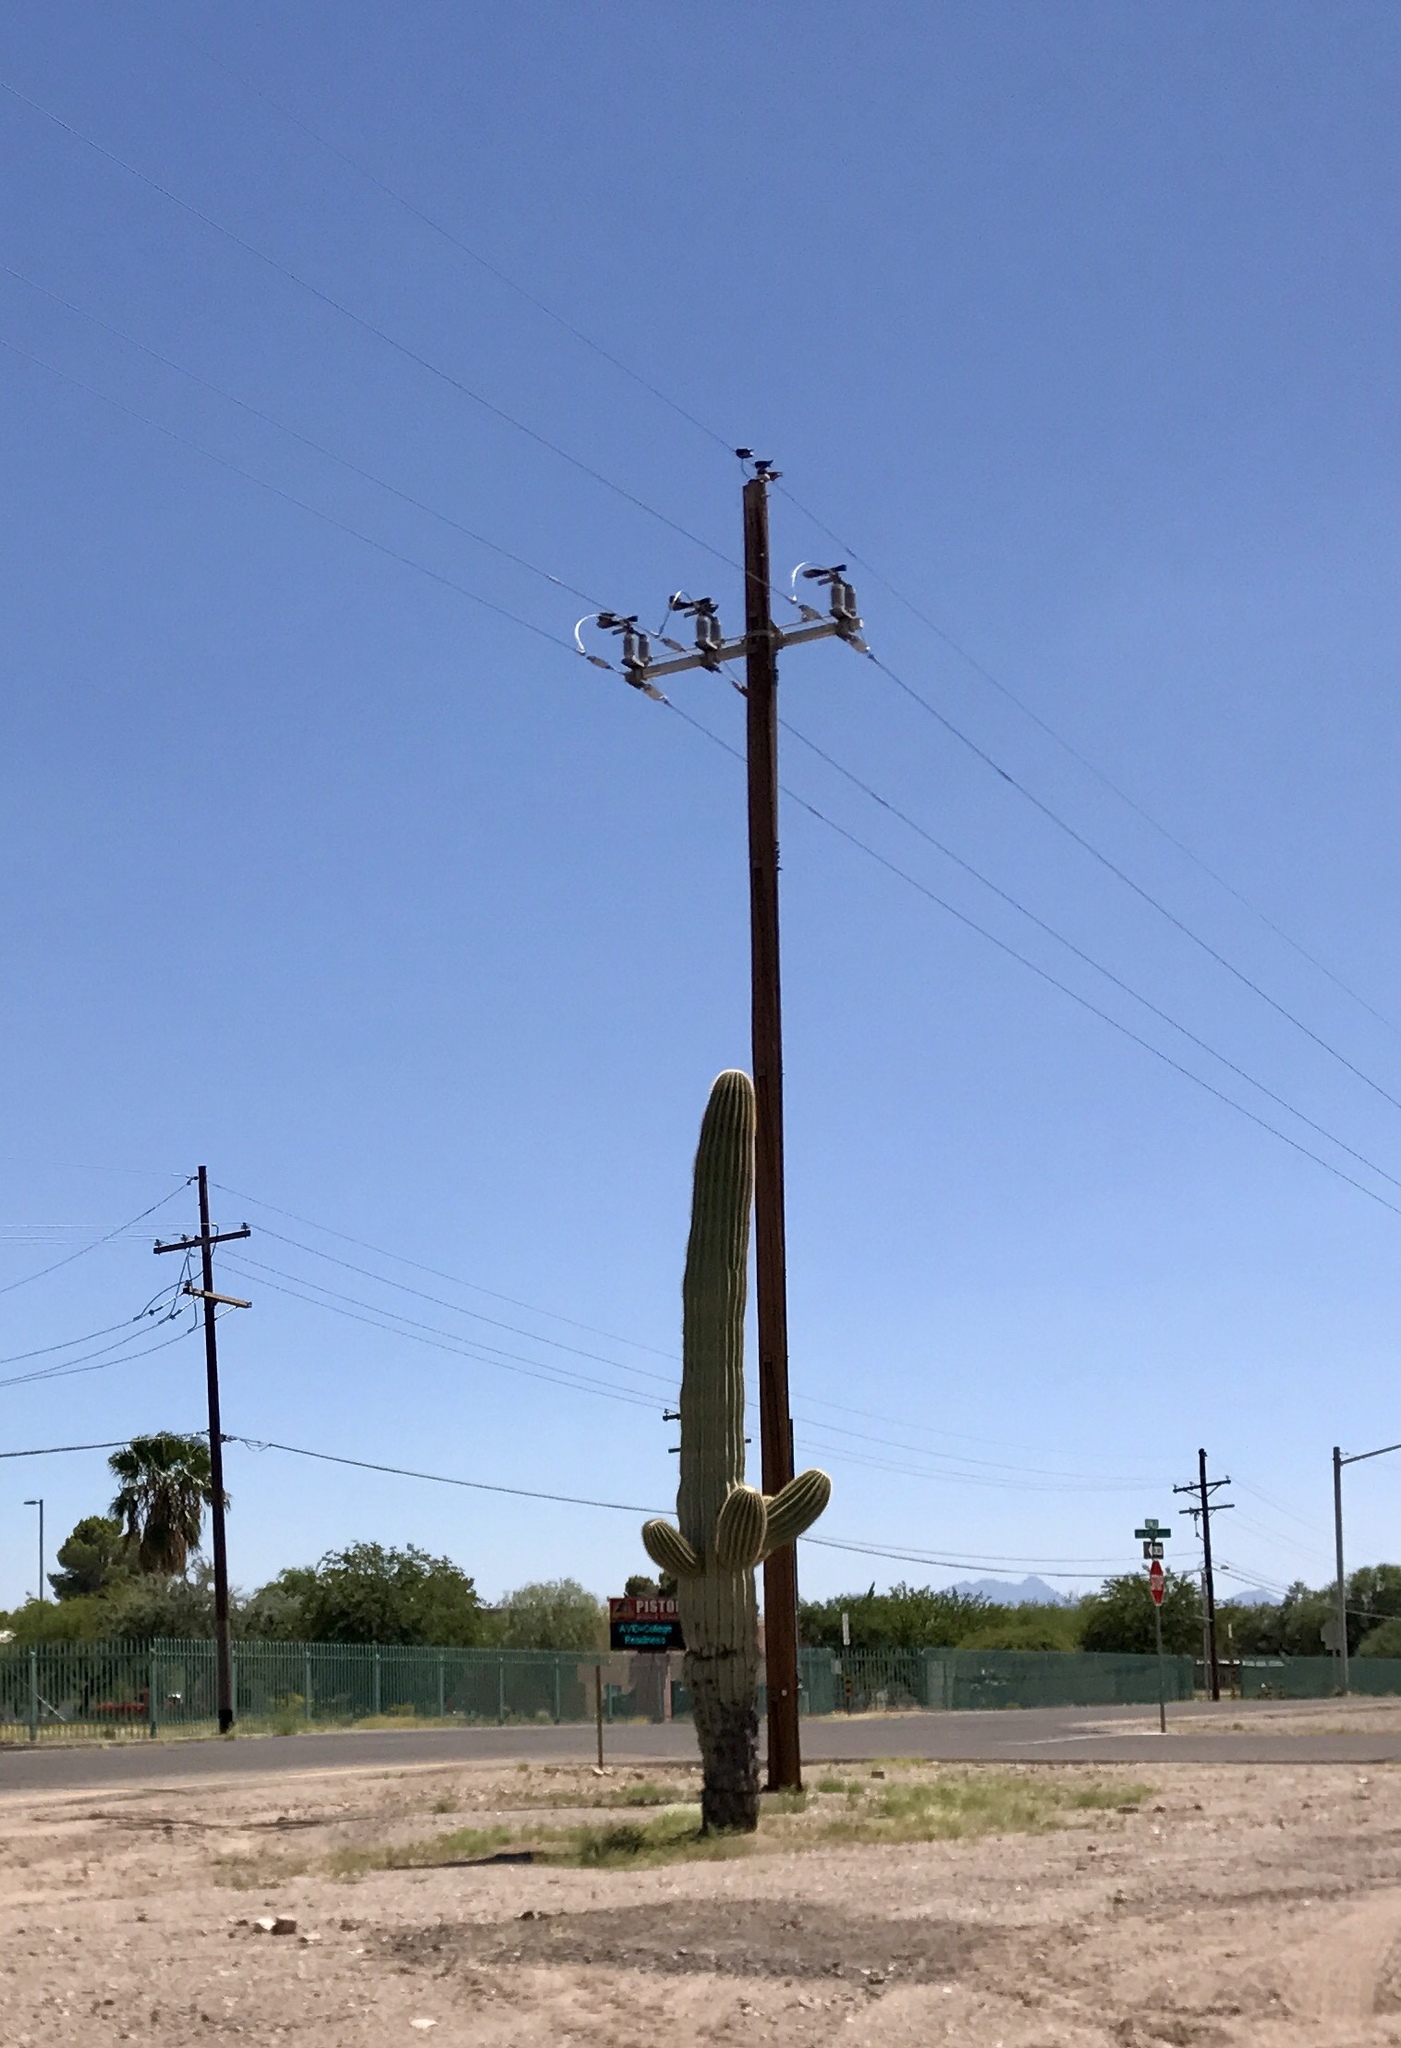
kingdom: Plantae
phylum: Tracheophyta
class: Magnoliopsida
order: Caryophyllales
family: Cactaceae
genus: Carnegiea
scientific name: Carnegiea gigantea
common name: Saguaro
